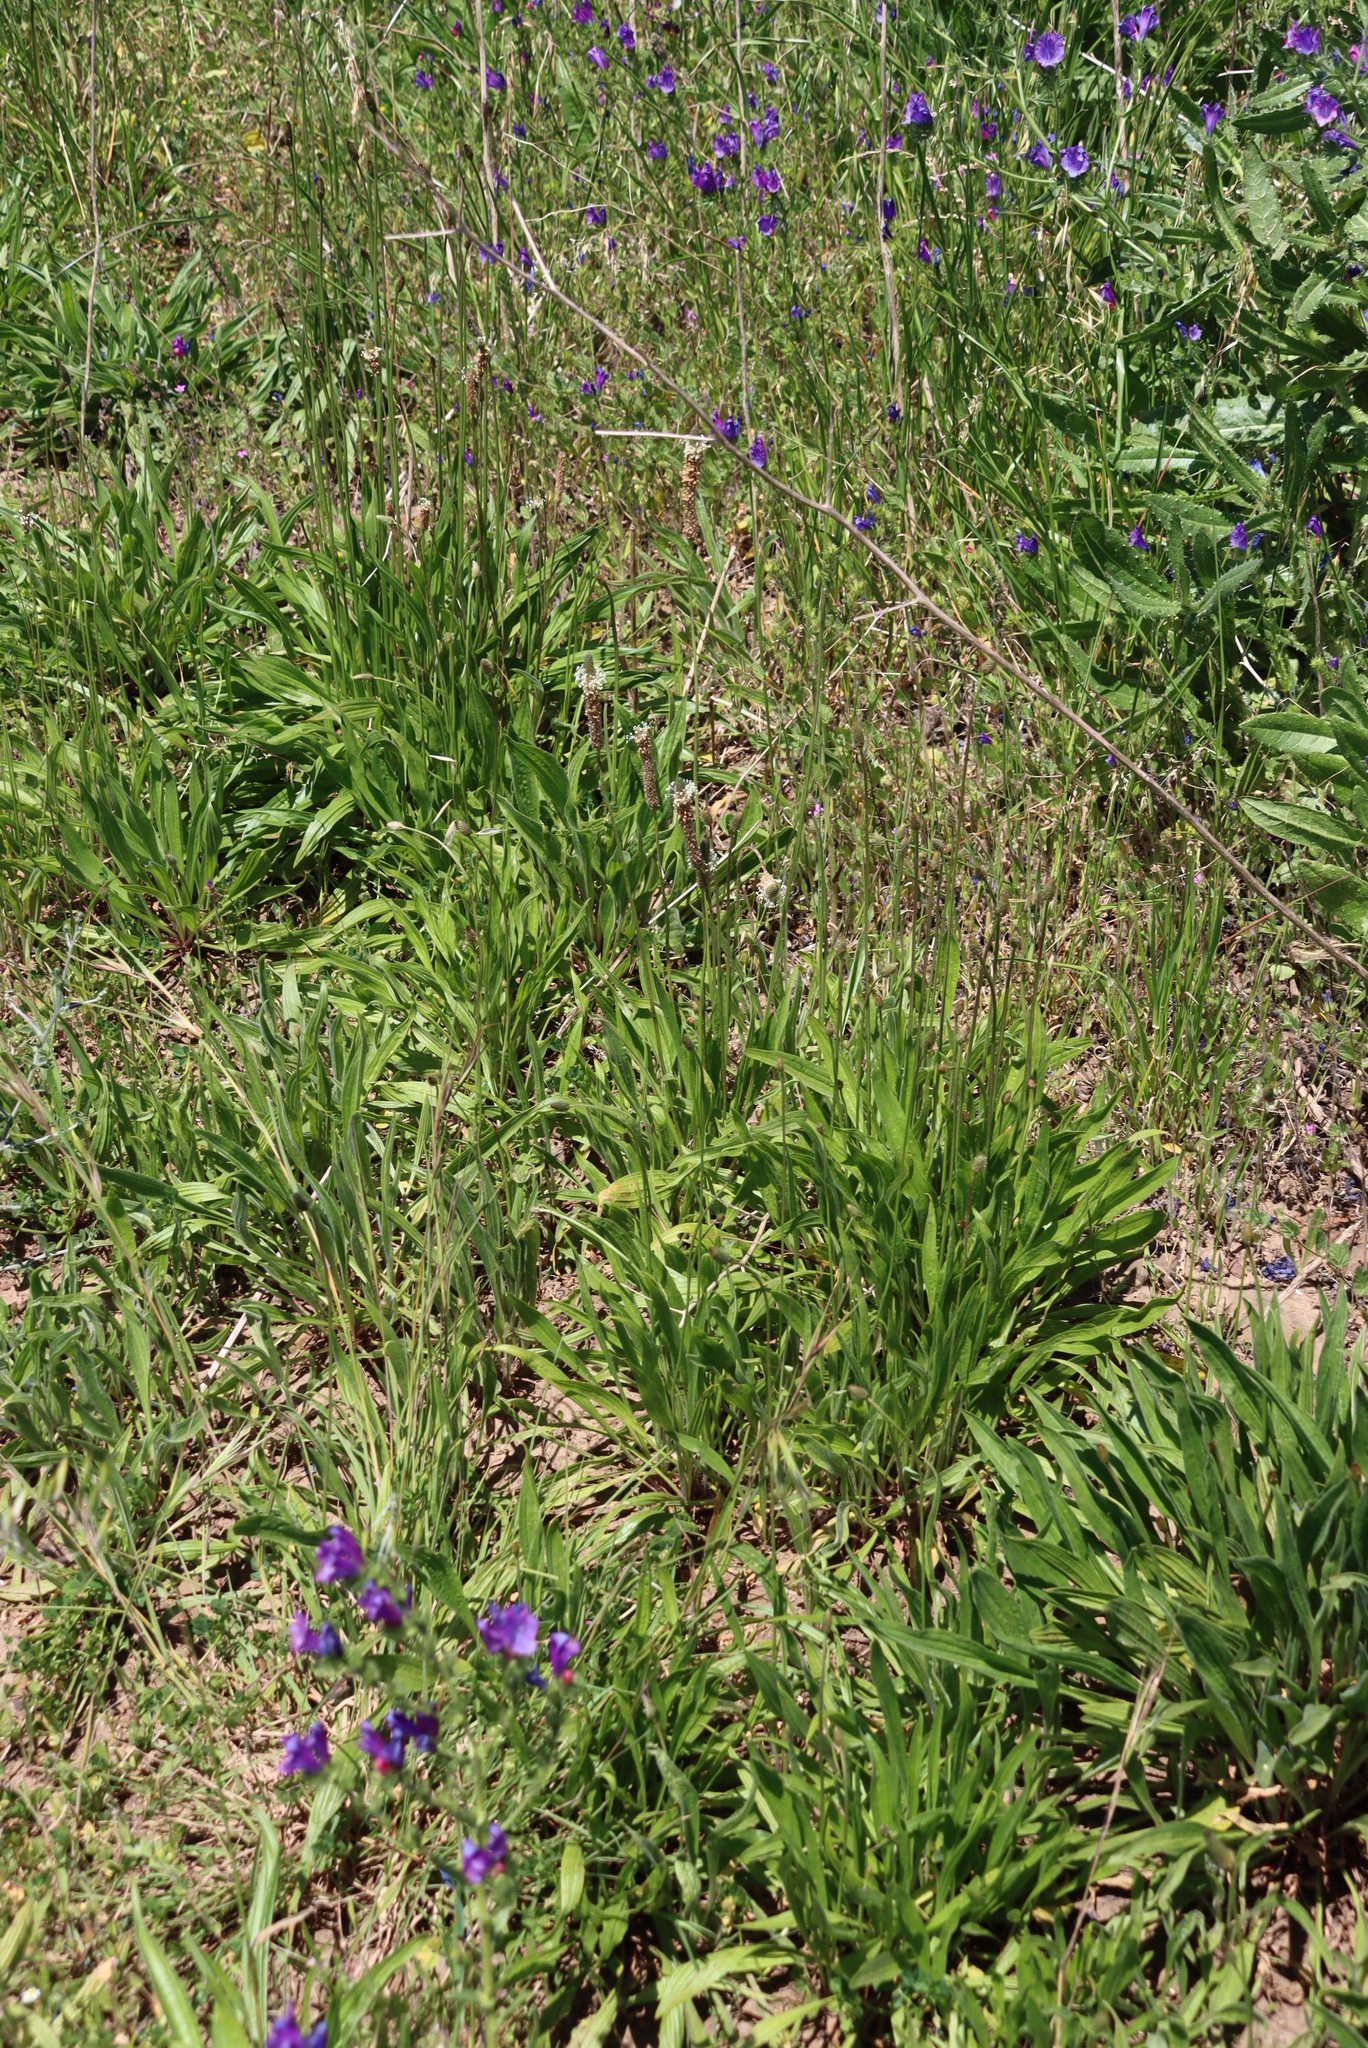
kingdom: Plantae
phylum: Tracheophyta
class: Magnoliopsida
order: Lamiales
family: Plantaginaceae
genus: Plantago
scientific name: Plantago lanceolata
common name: Ribwort plantain
